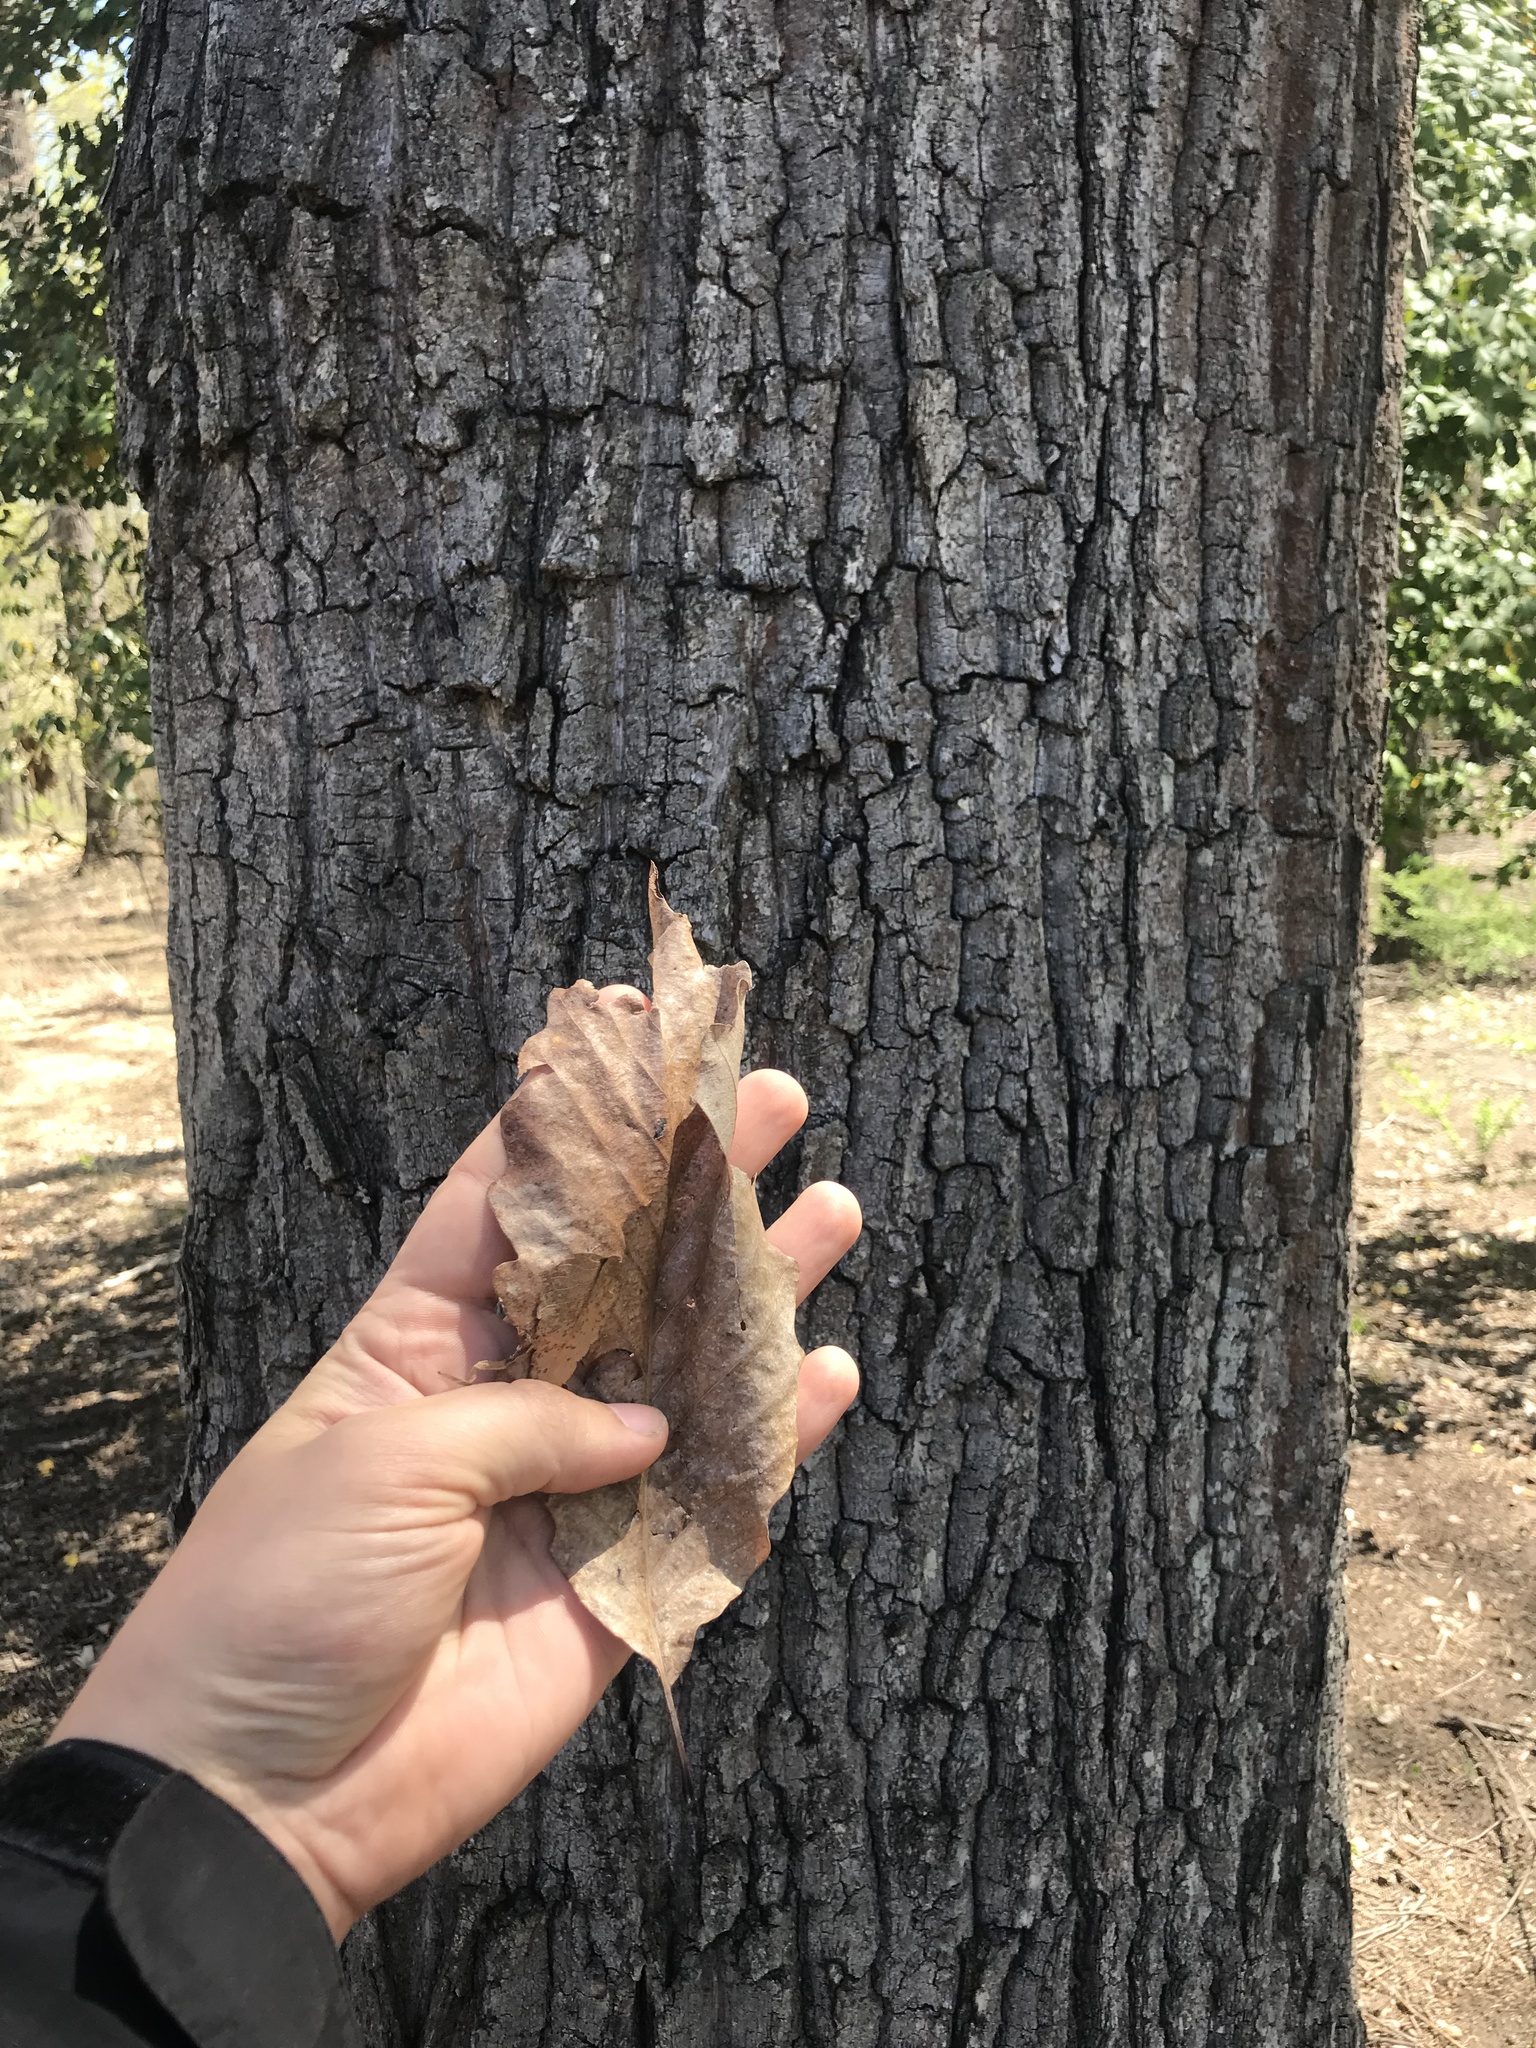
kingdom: Plantae
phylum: Tracheophyta
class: Magnoliopsida
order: Fagales
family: Fagaceae
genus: Quercus
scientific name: Quercus alba
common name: White oak
